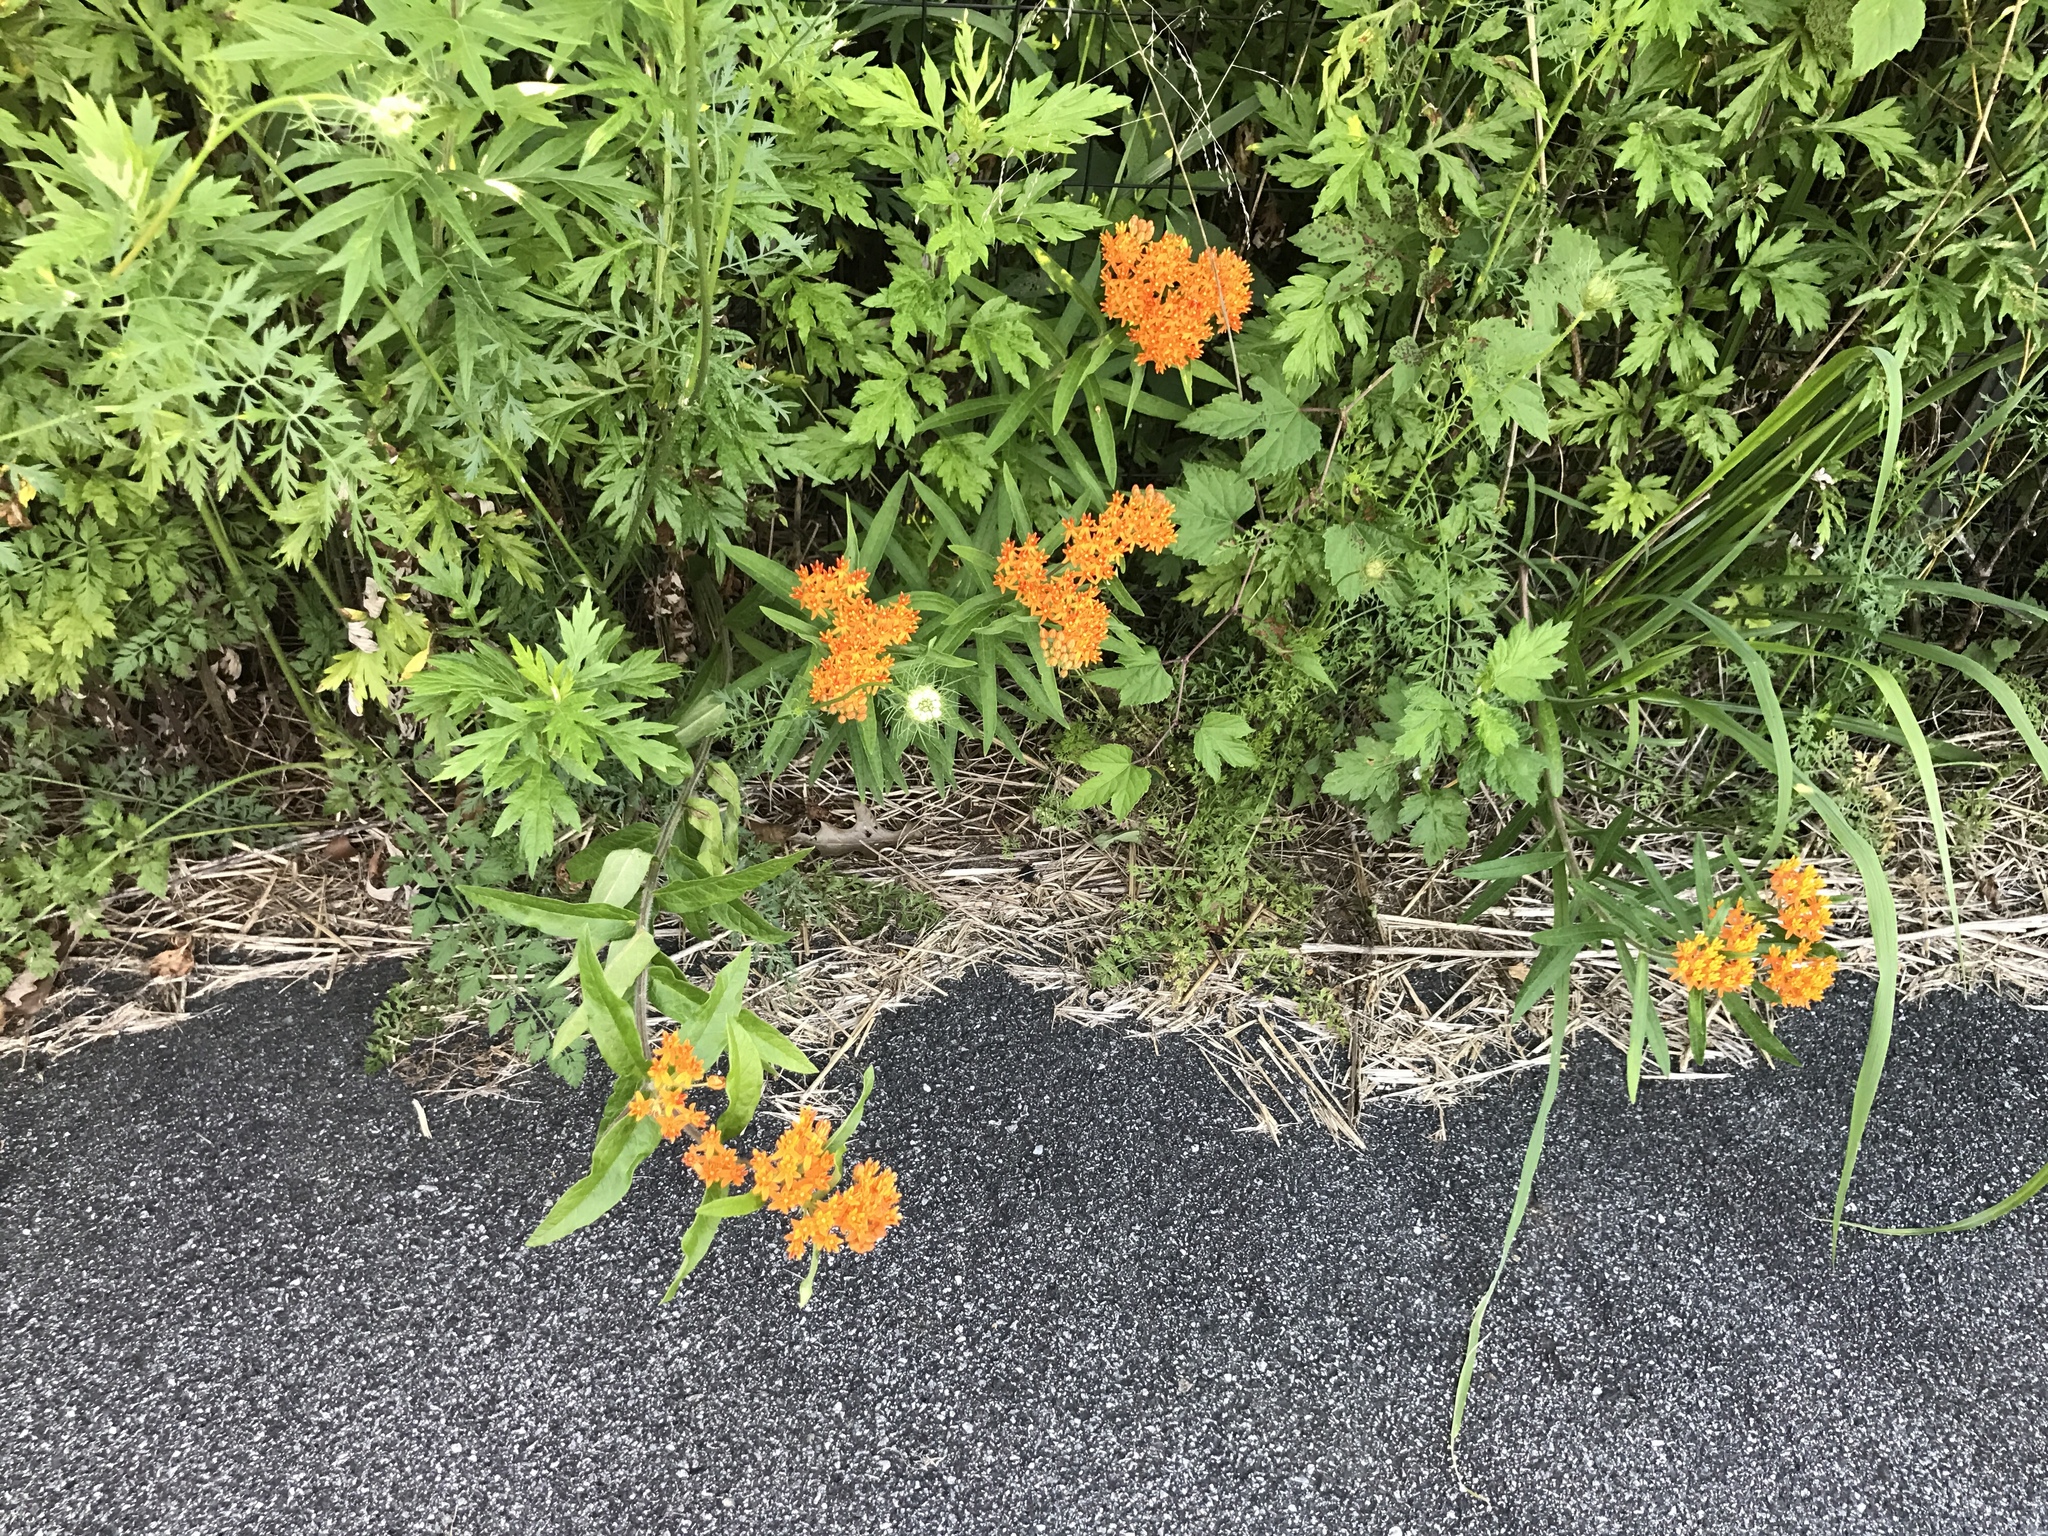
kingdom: Plantae
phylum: Tracheophyta
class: Magnoliopsida
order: Gentianales
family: Apocynaceae
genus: Asclepias
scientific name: Asclepias tuberosa
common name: Butterfly milkweed
